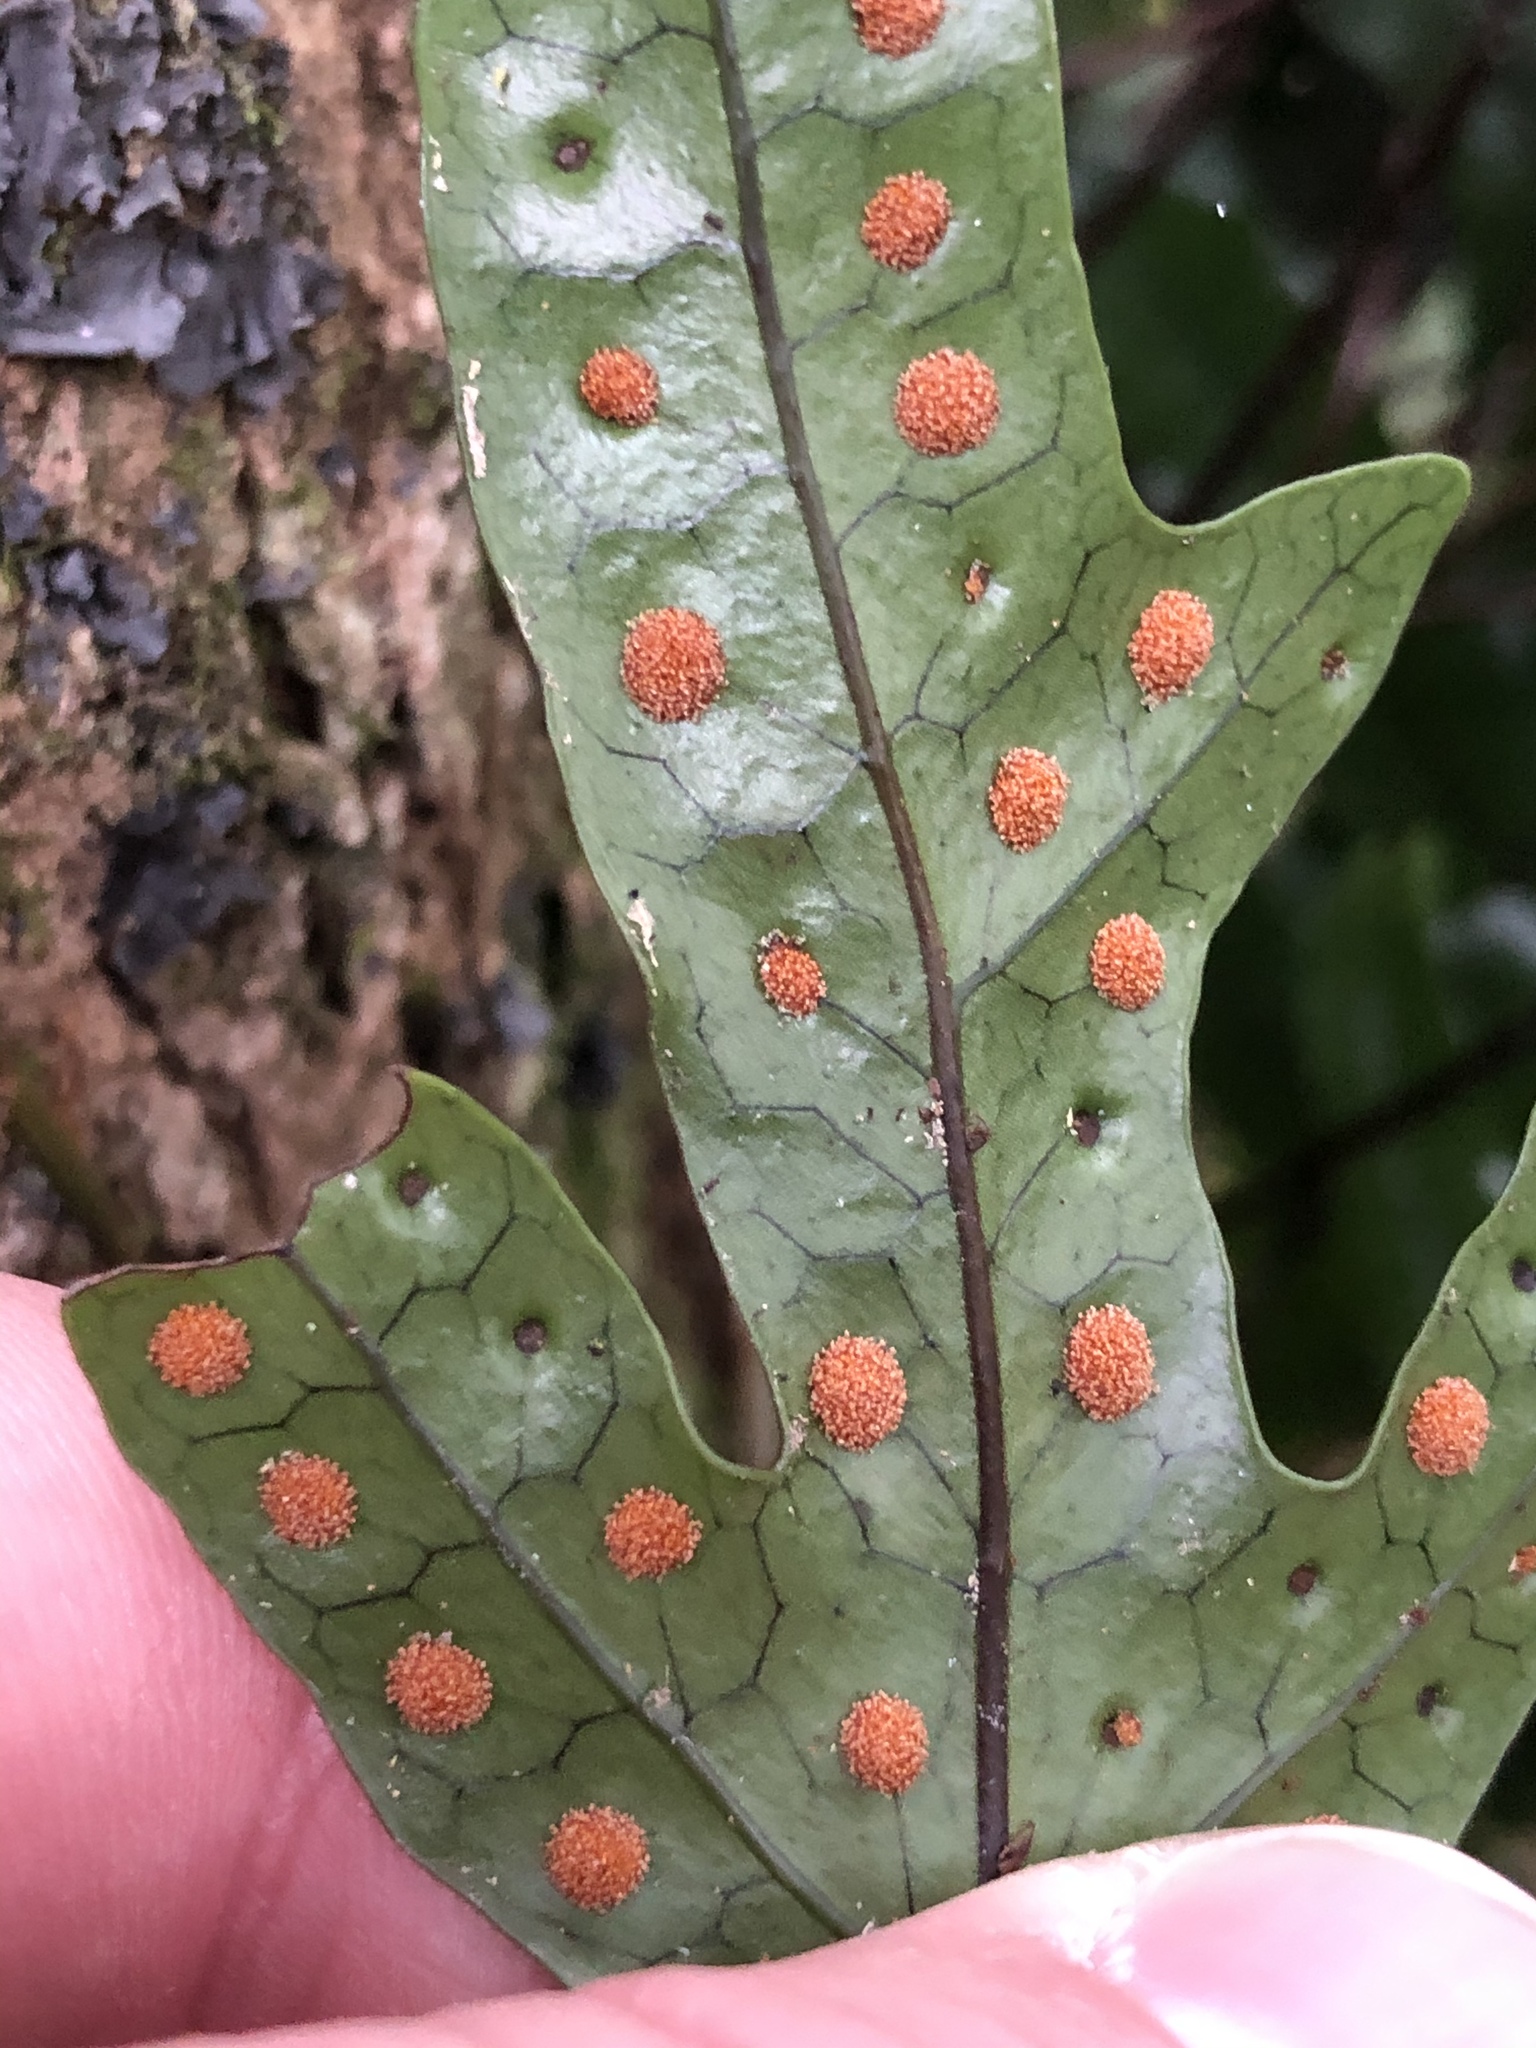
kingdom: Plantae
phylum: Tracheophyta
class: Polypodiopsida
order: Polypodiales
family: Polypodiaceae
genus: Lecanopteris
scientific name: Lecanopteris pustulata
